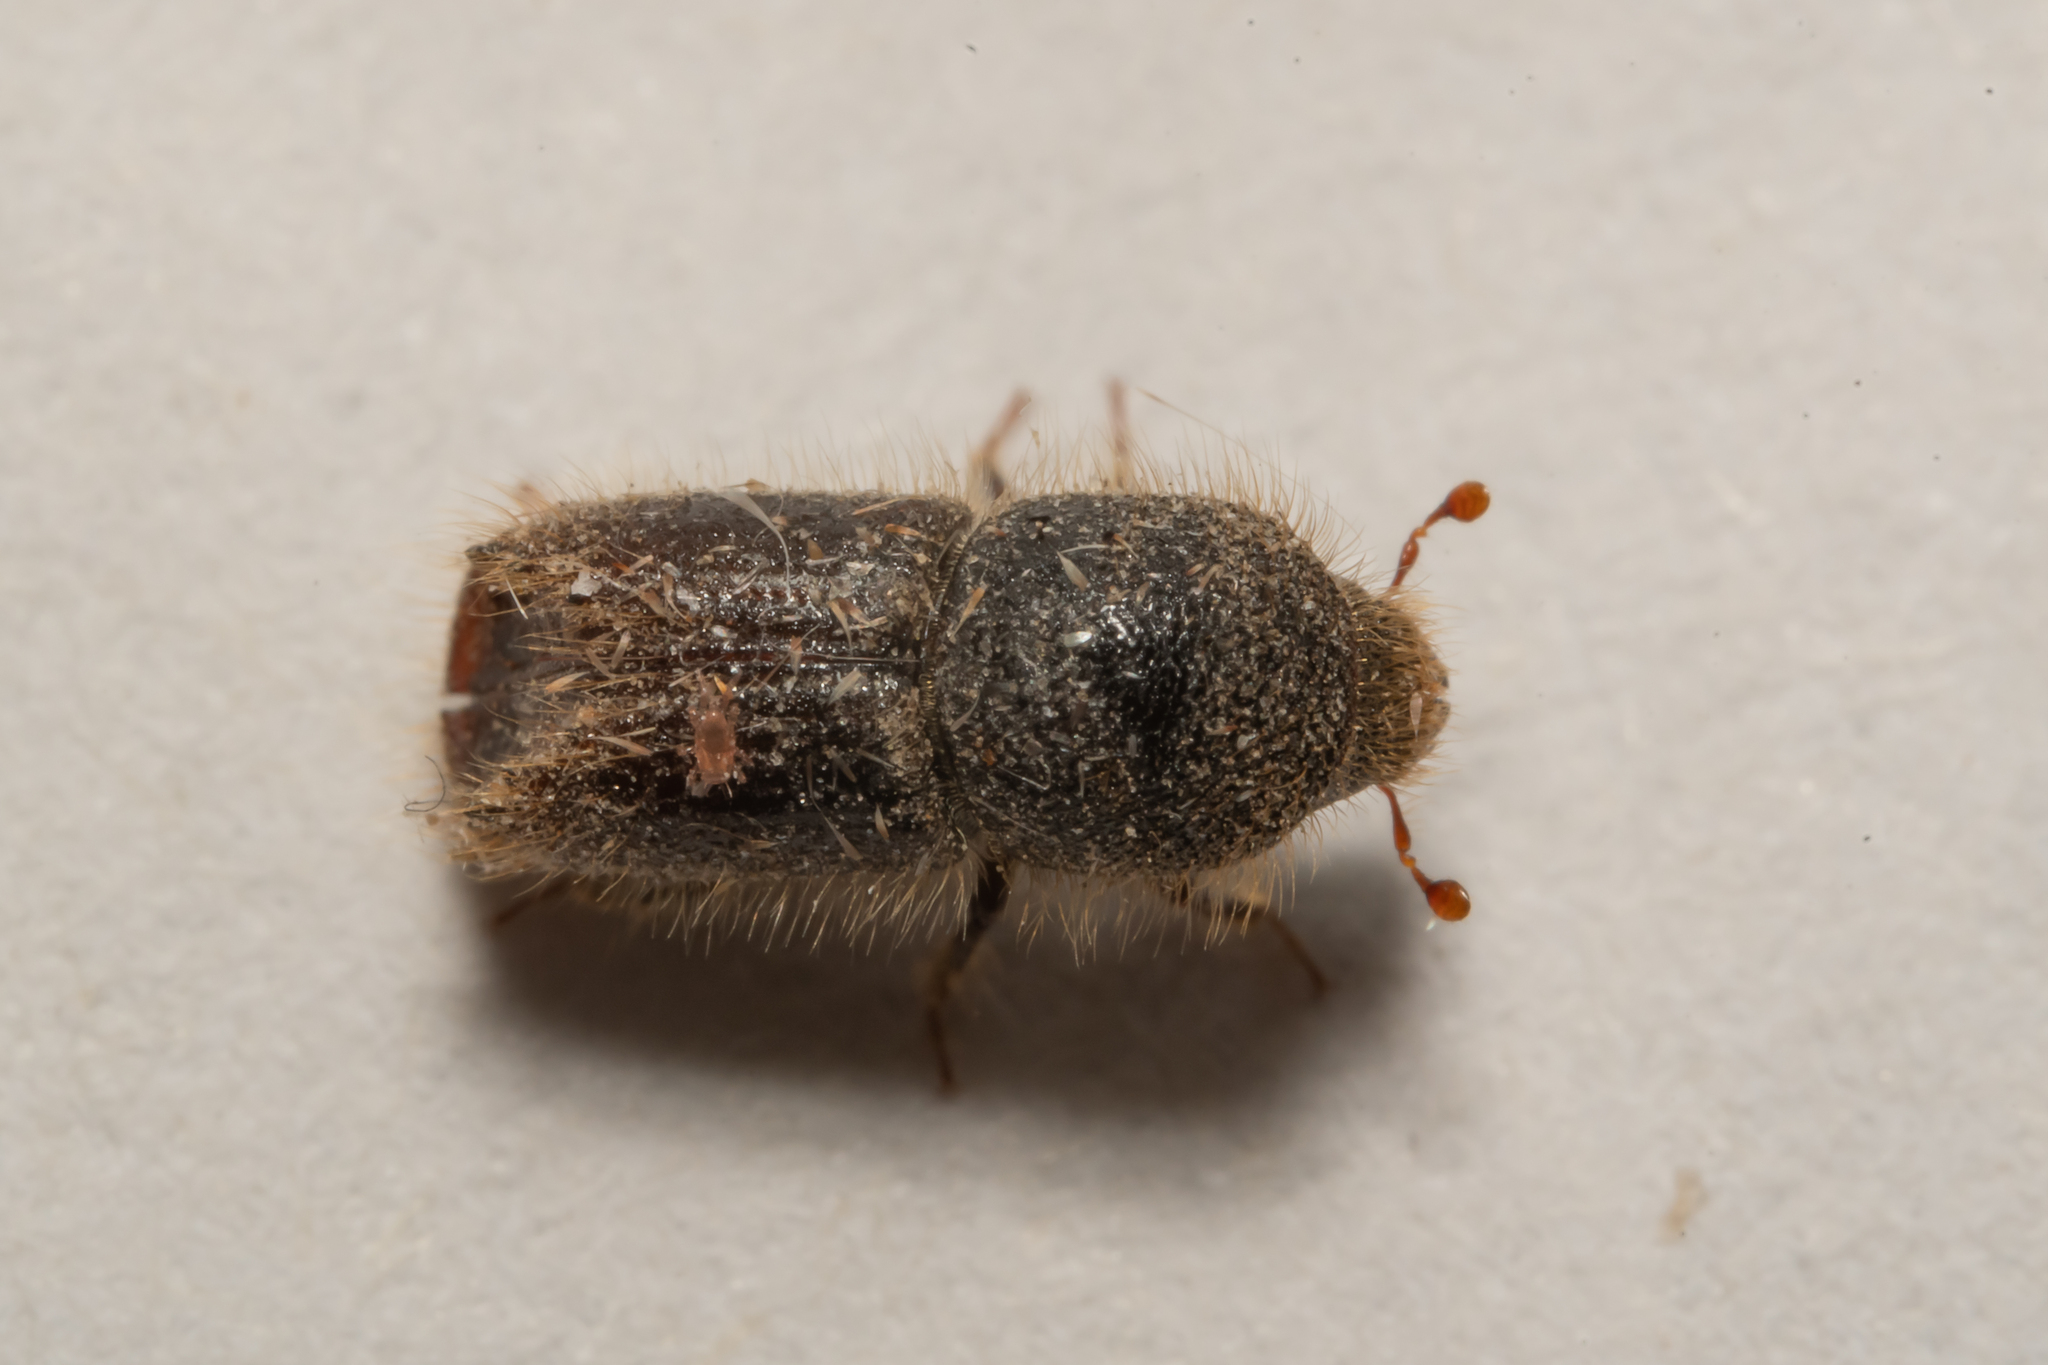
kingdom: Animalia
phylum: Arthropoda
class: Insecta
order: Coleoptera
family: Curculionidae
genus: Ips
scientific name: Ips typographus
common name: Eight-toothed spruce bark beetle
